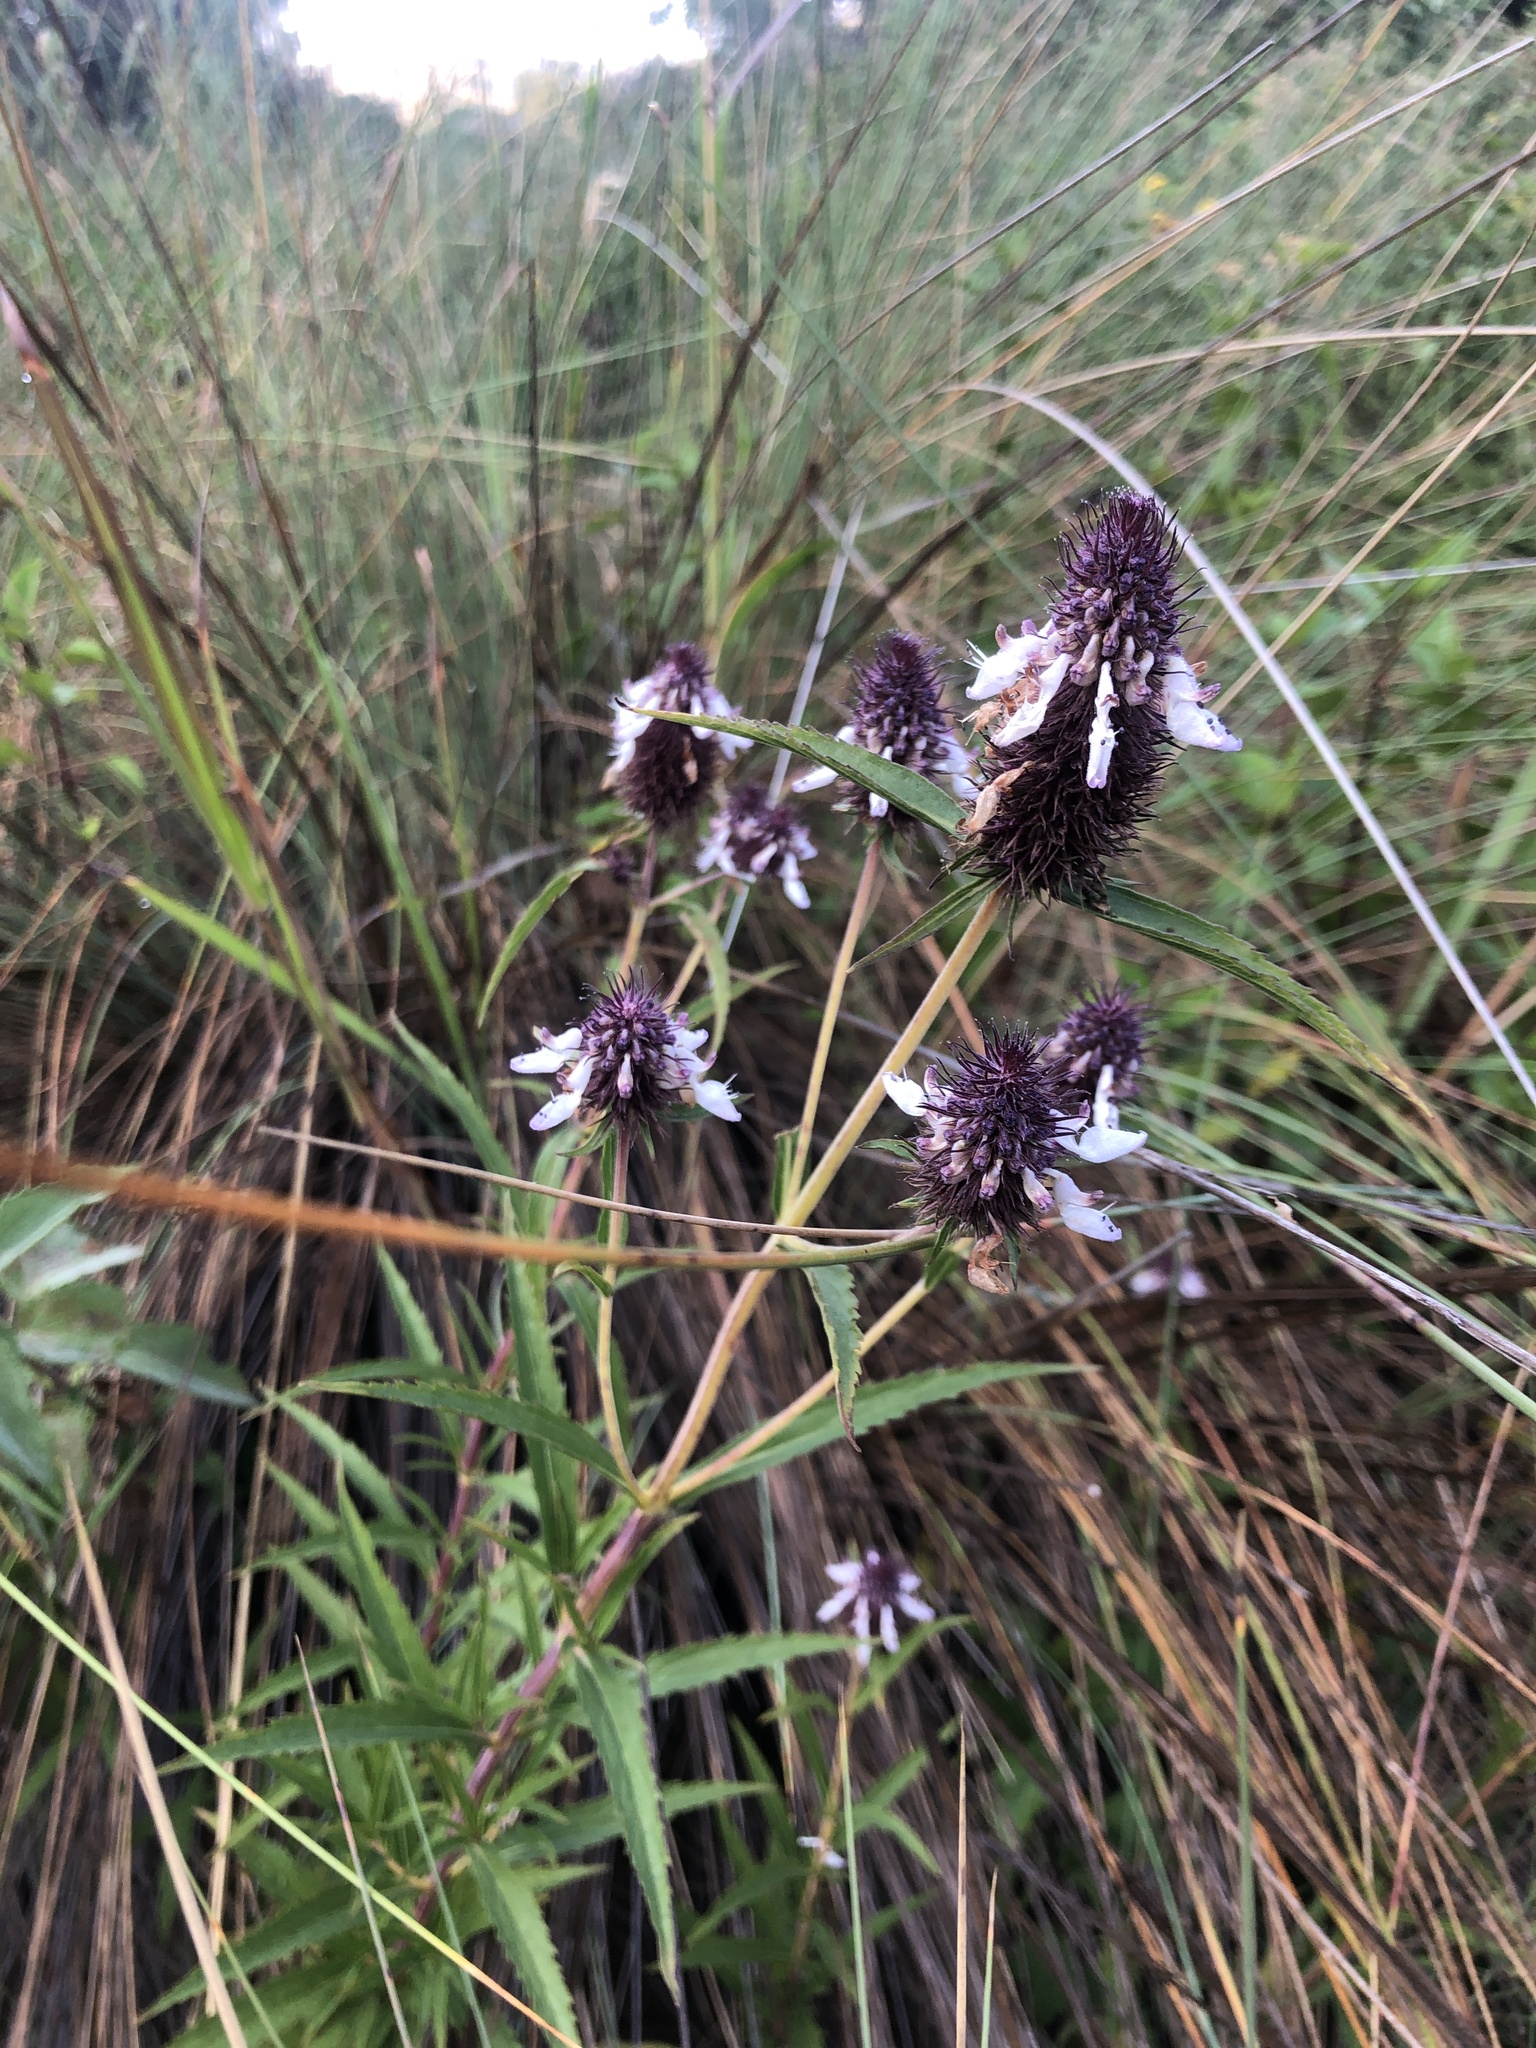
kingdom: Plantae
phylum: Tracheophyta
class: Magnoliopsida
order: Lamiales
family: Lamiaceae
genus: Coleus
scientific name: Coleus kirkii
